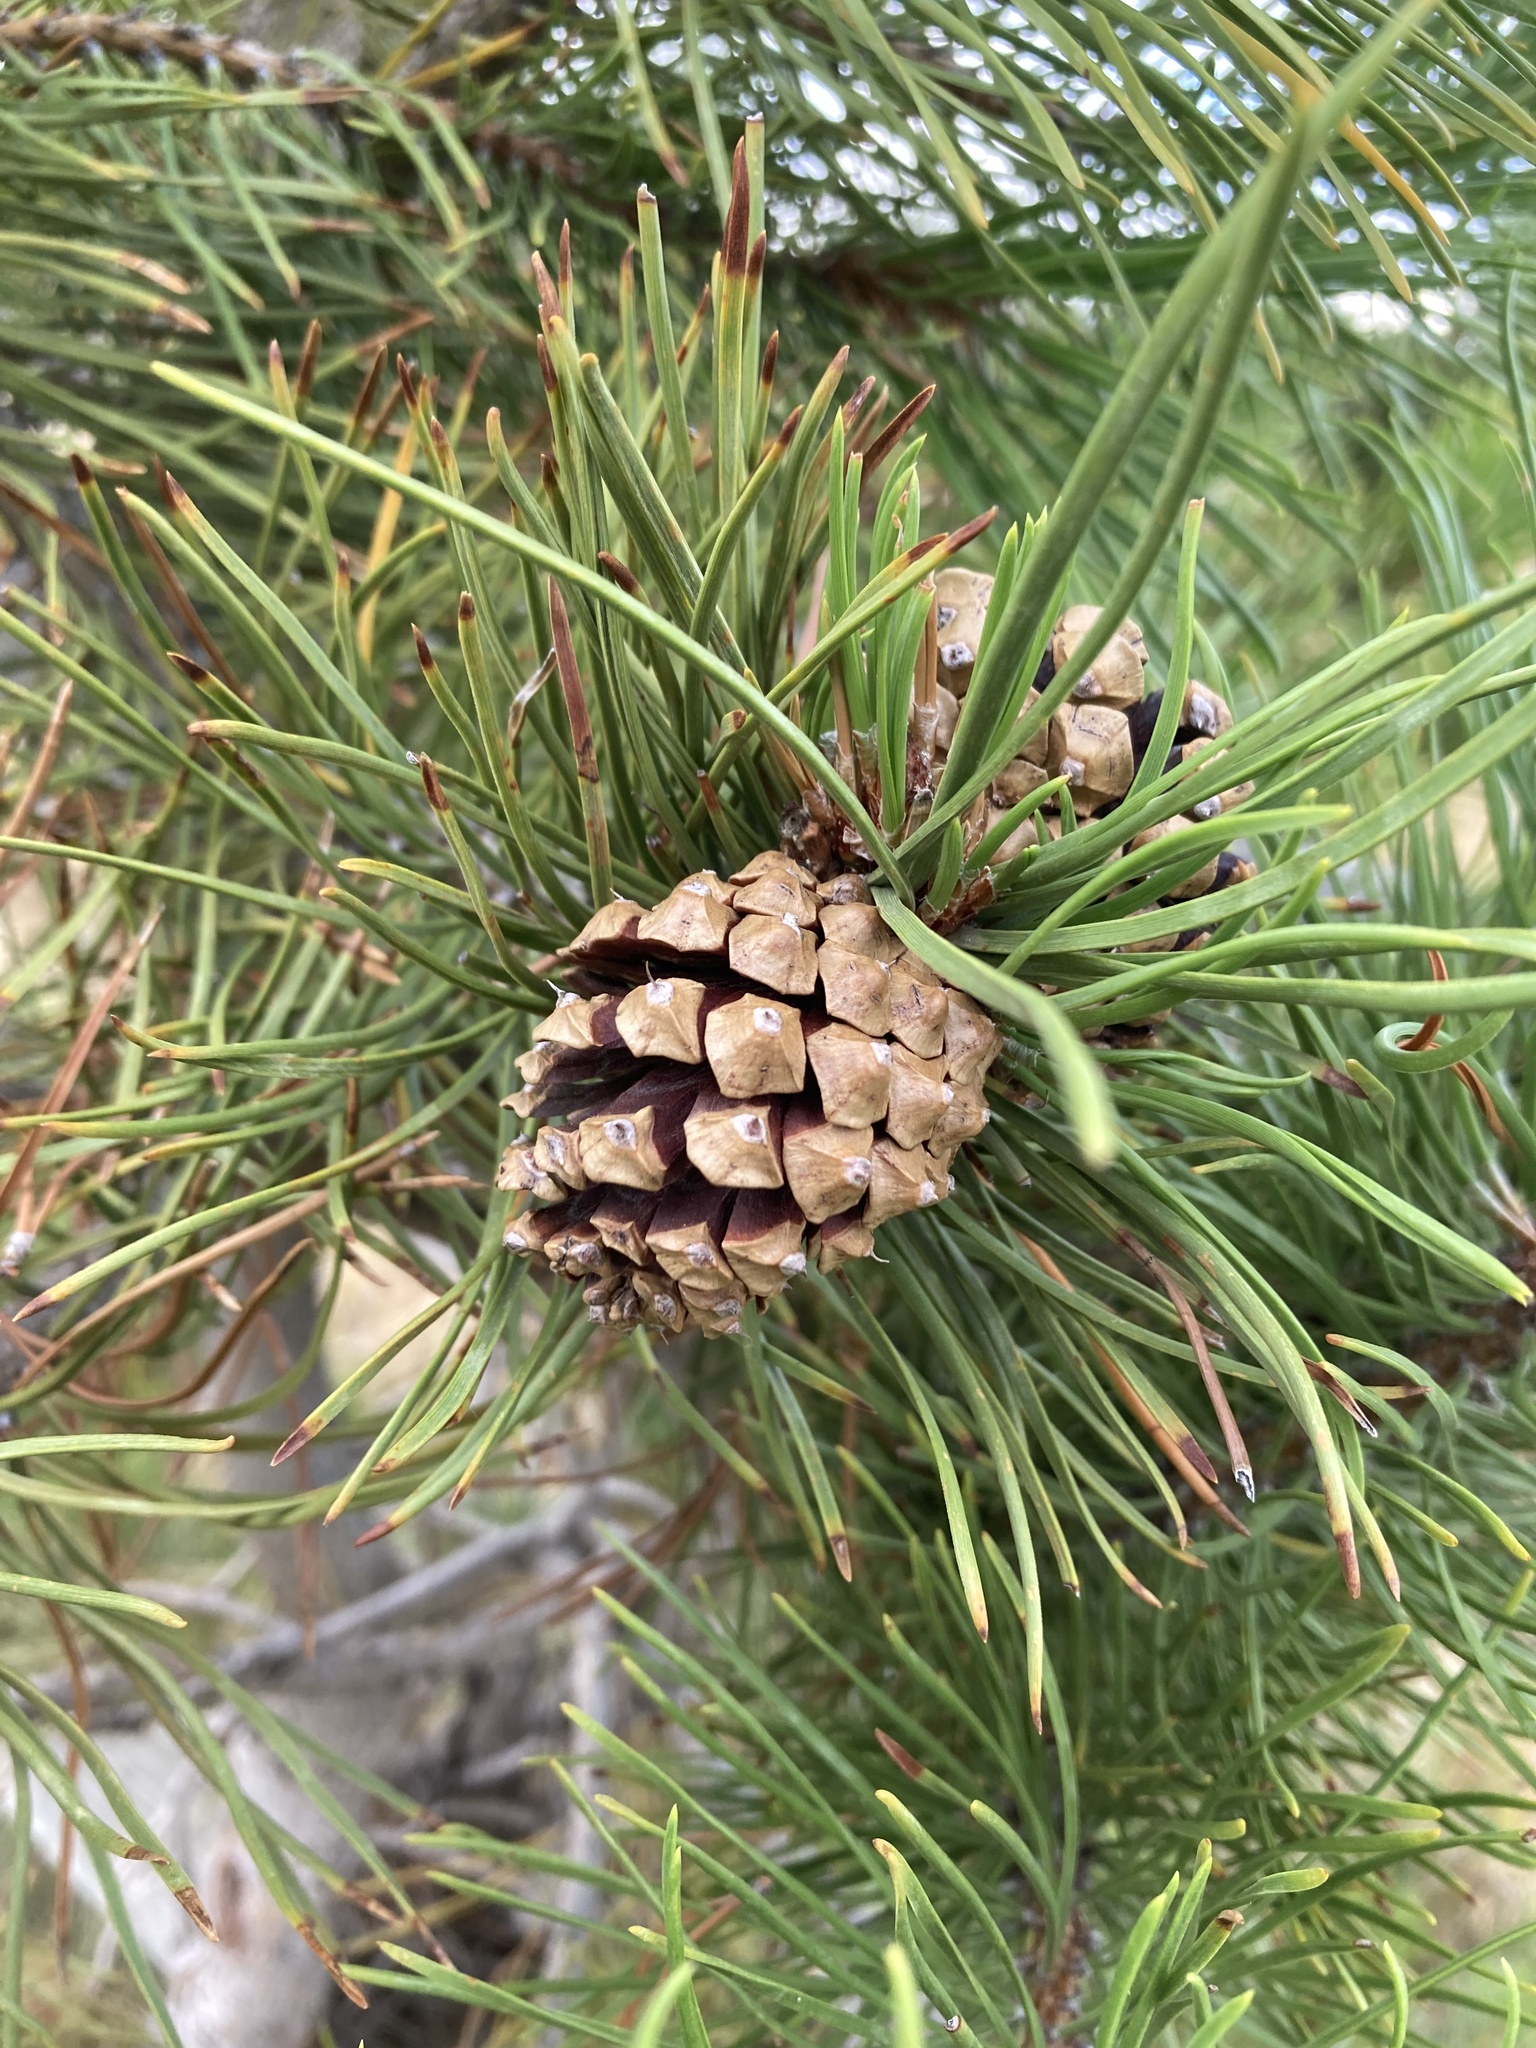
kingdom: Plantae
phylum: Tracheophyta
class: Pinopsida
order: Pinales
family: Pinaceae
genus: Pinus
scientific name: Pinus contorta
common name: Lodgepole pine
